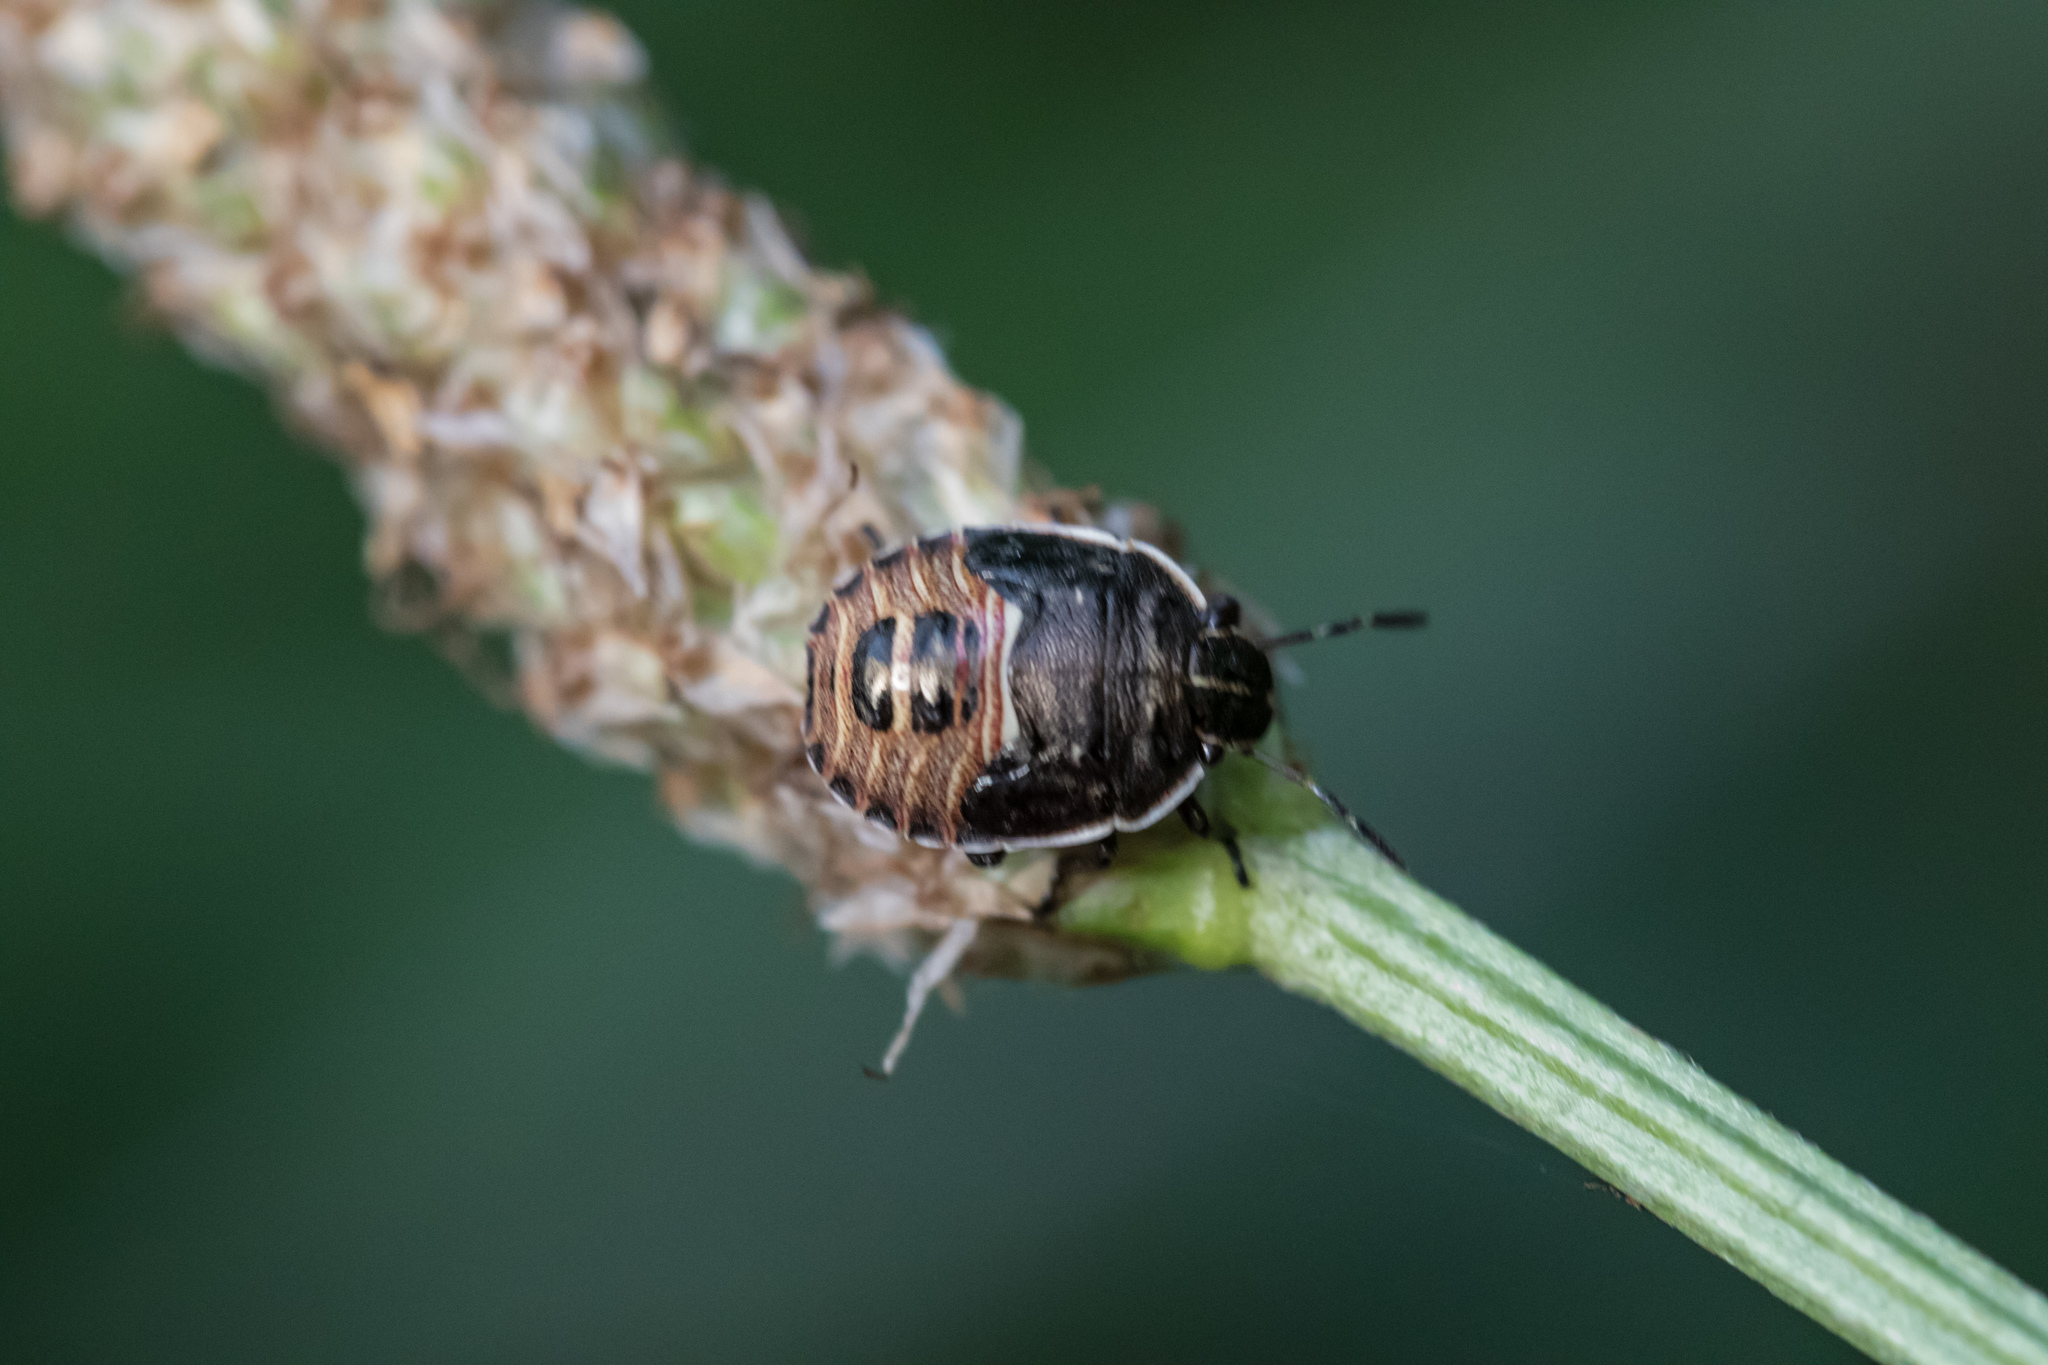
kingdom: Animalia
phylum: Arthropoda
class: Insecta
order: Hemiptera
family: Pentatomidae
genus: Dictyotus
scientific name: Dictyotus caenosus
